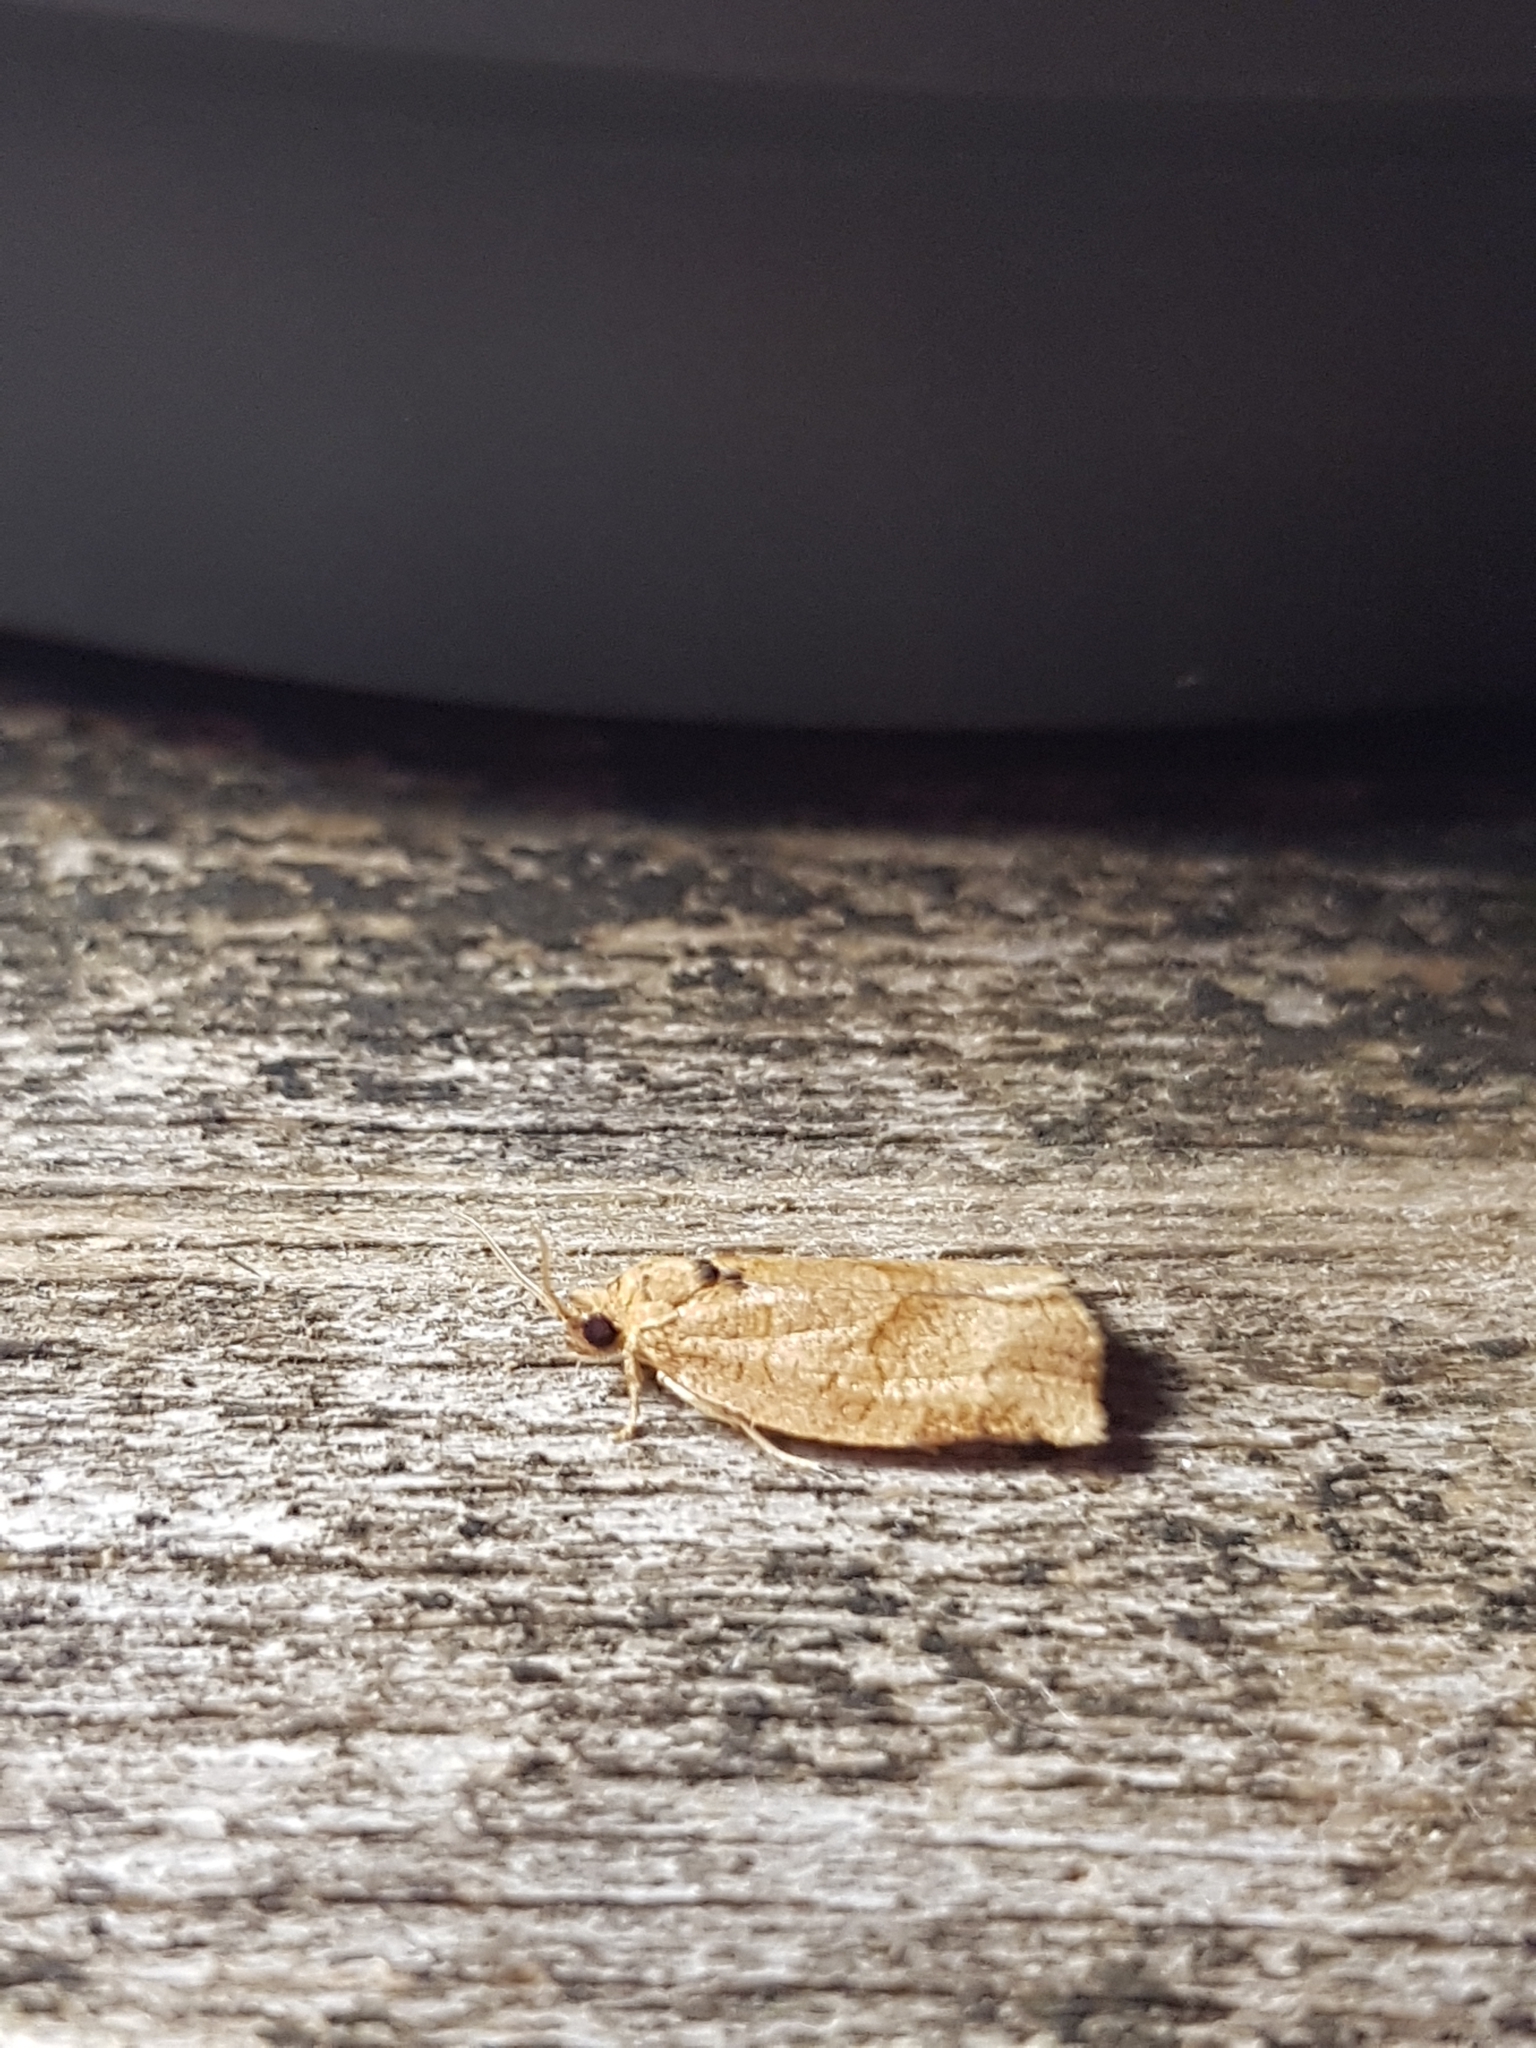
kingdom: Animalia
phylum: Arthropoda
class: Insecta
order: Lepidoptera
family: Tortricidae
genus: Choristoneura
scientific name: Choristoneura rosaceana
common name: Oblique-banded leafroller moth
